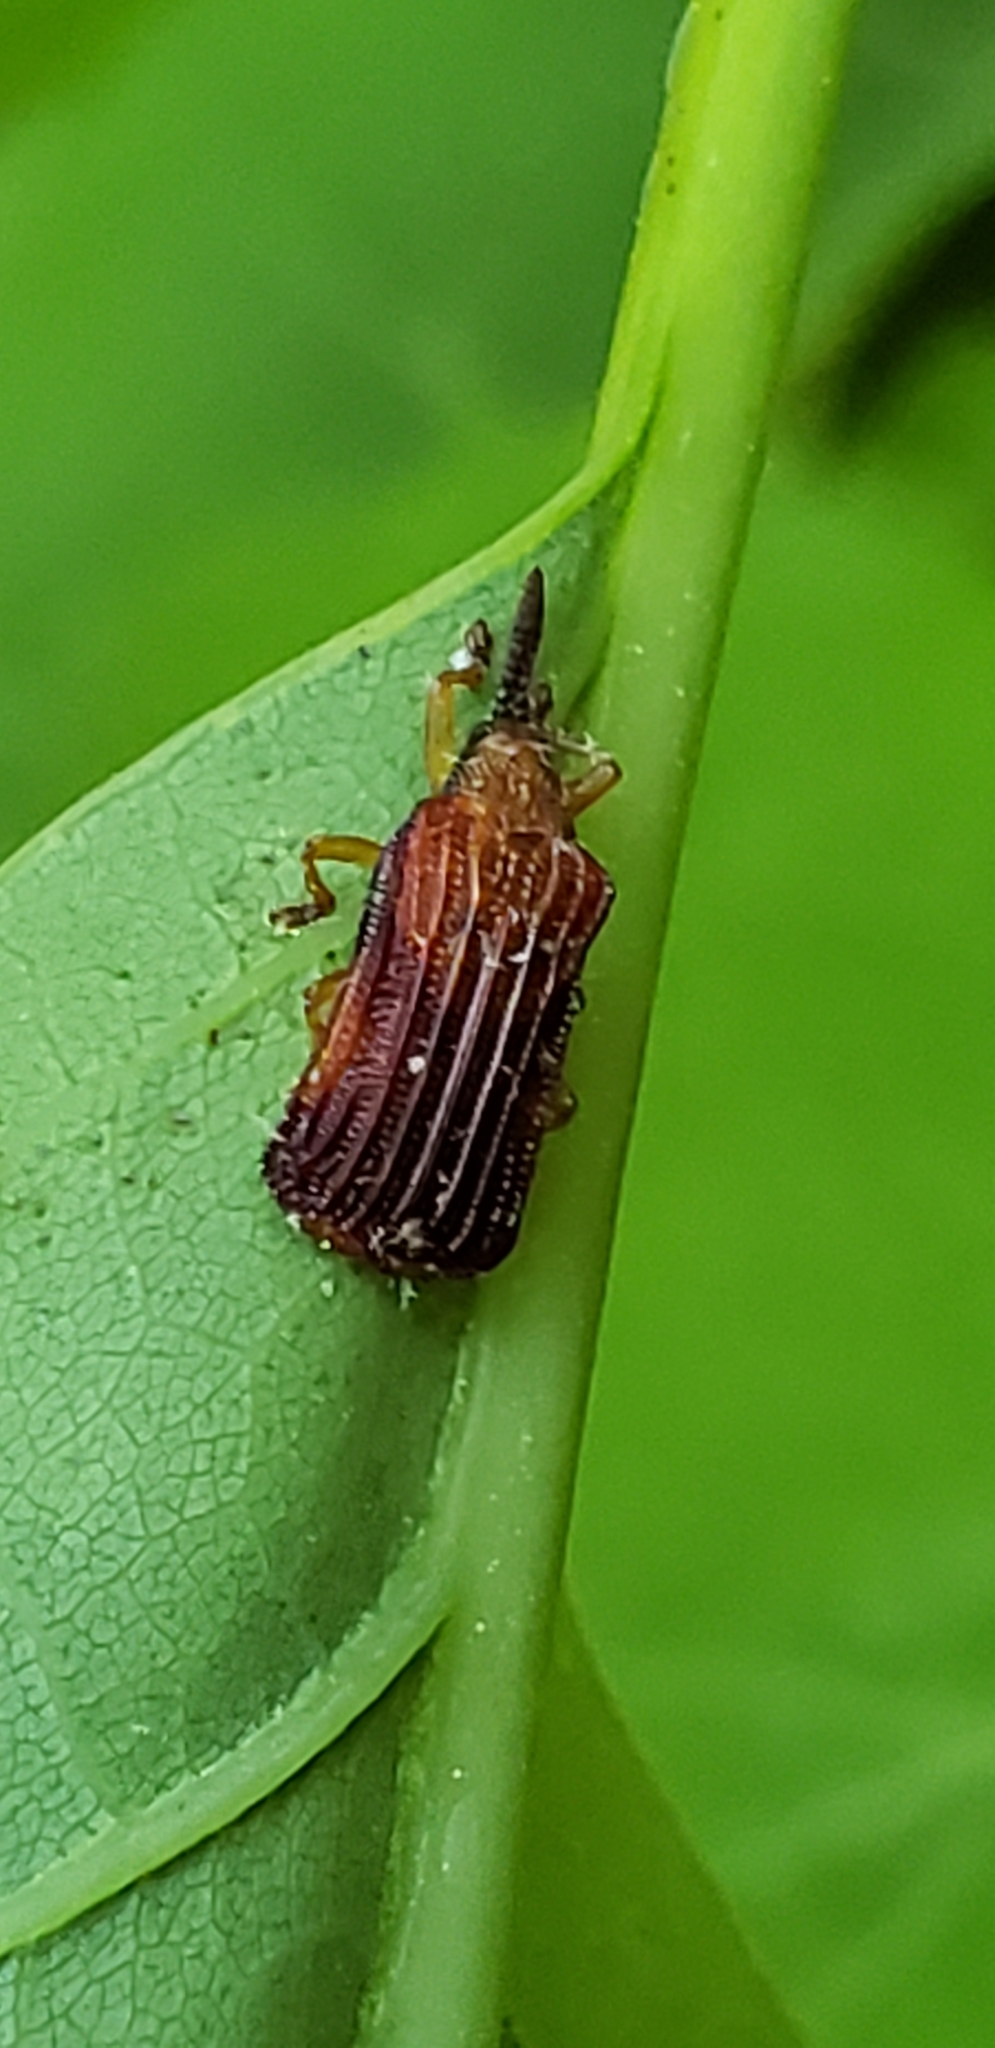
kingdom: Animalia
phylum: Arthropoda
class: Insecta
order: Coleoptera
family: Chrysomelidae
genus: Baliosus
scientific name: Baliosus nervosus
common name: Basswood leaf miner
